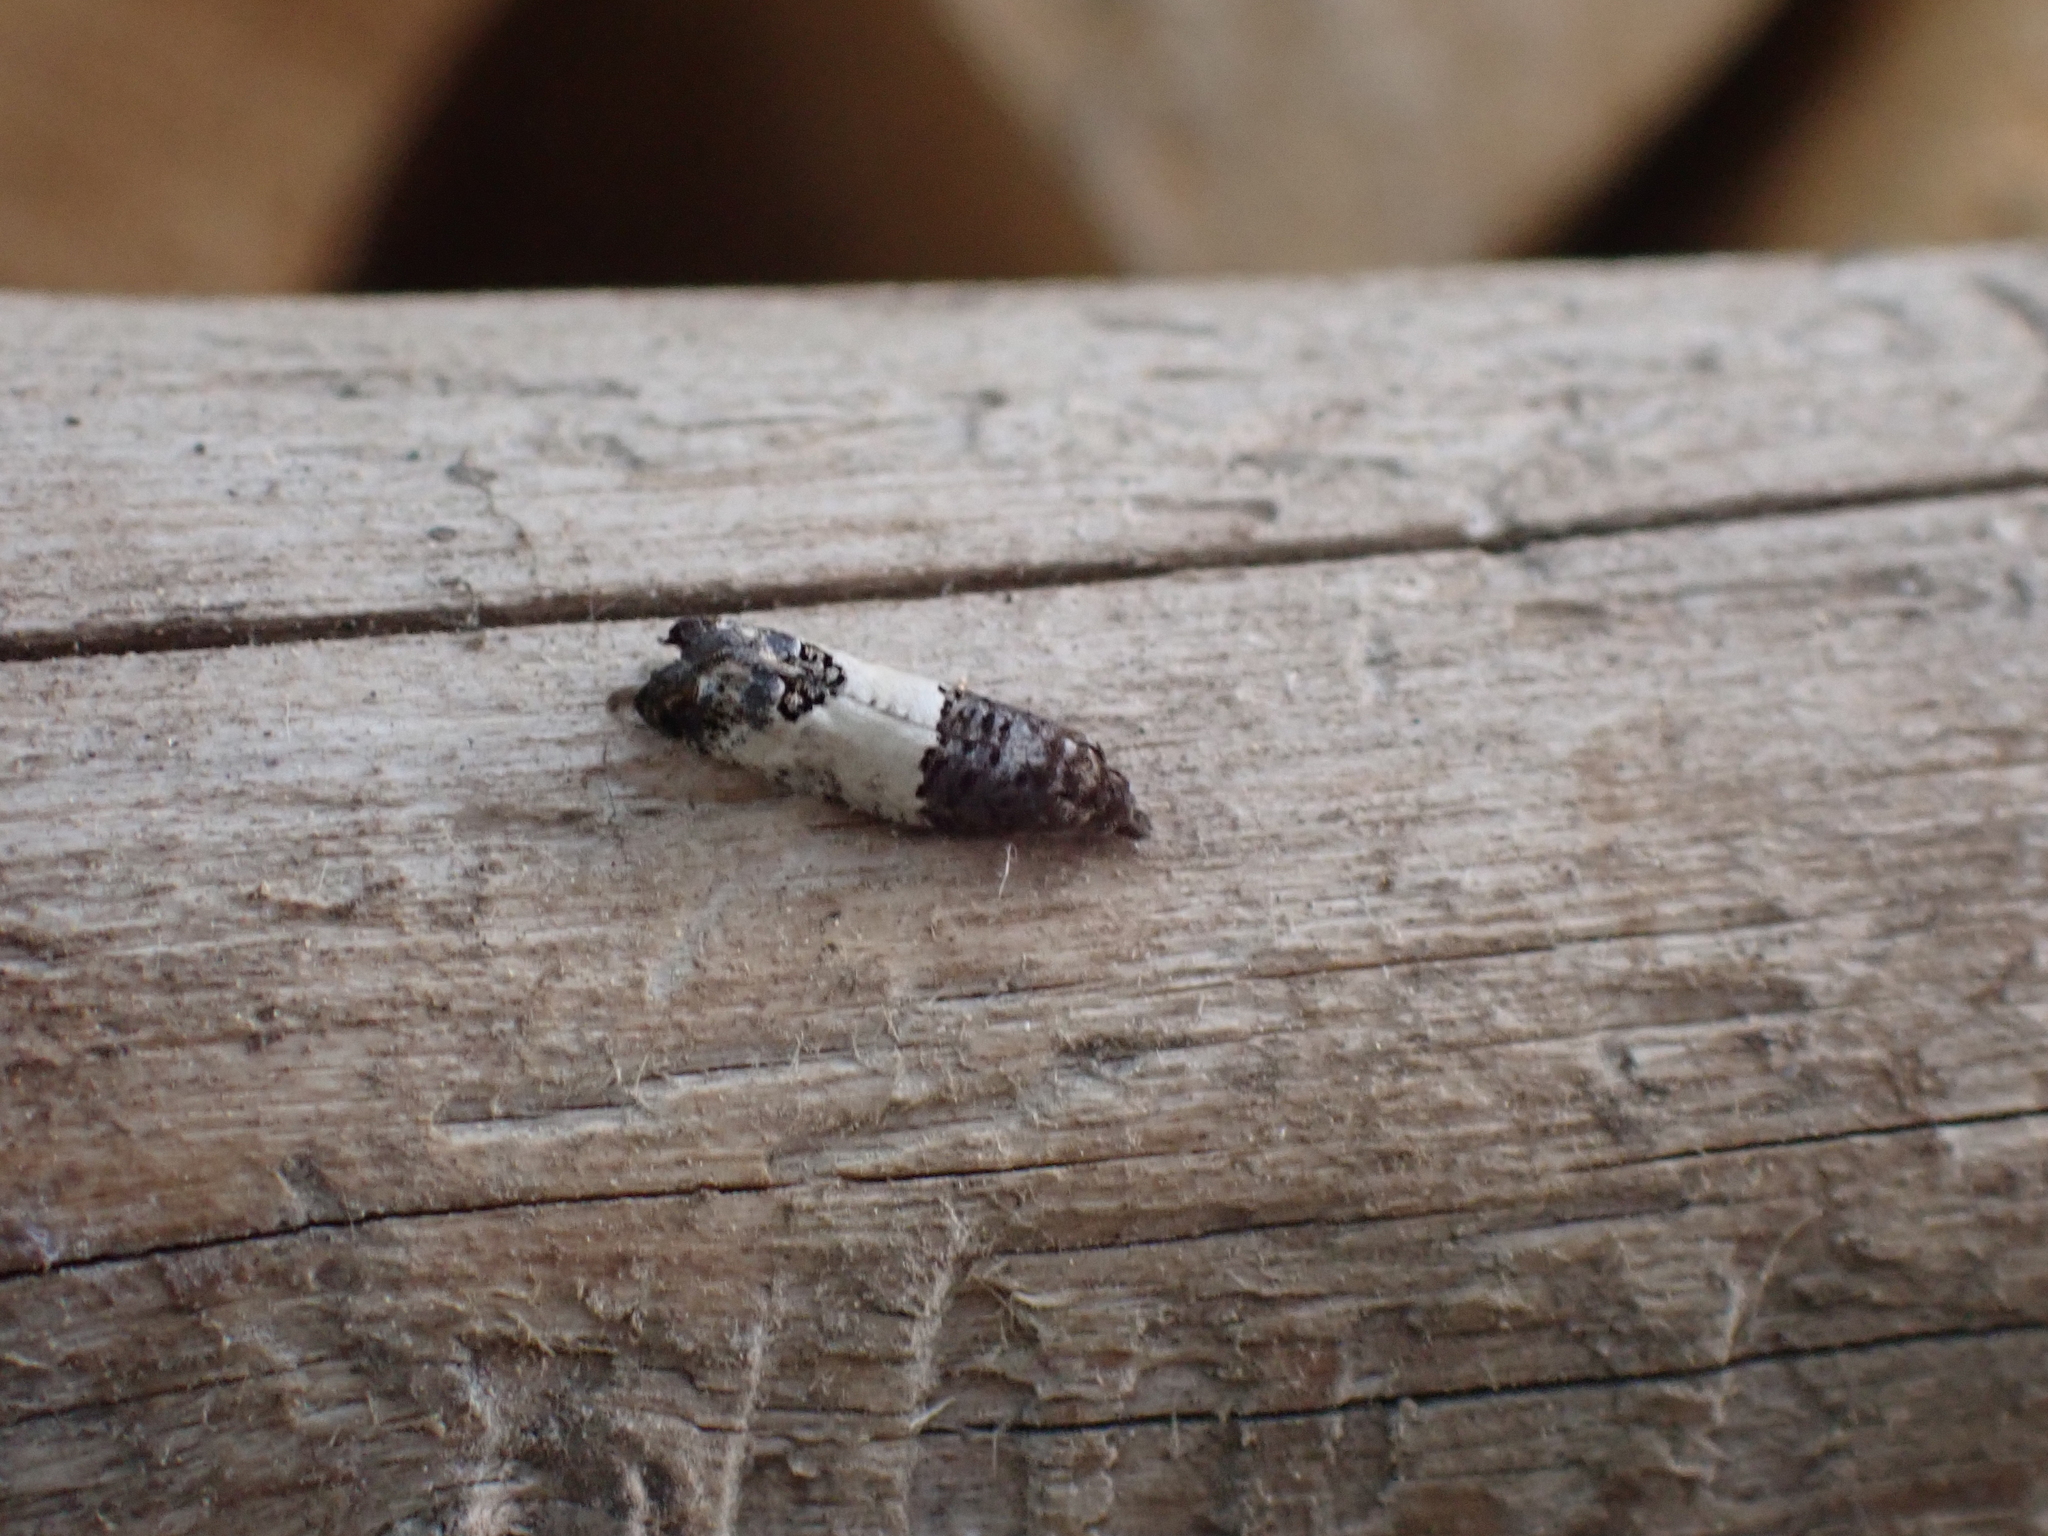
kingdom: Animalia
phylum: Arthropoda
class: Insecta
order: Lepidoptera
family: Tortricidae
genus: Spilonota
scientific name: Spilonota ocellana
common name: Bud moth
